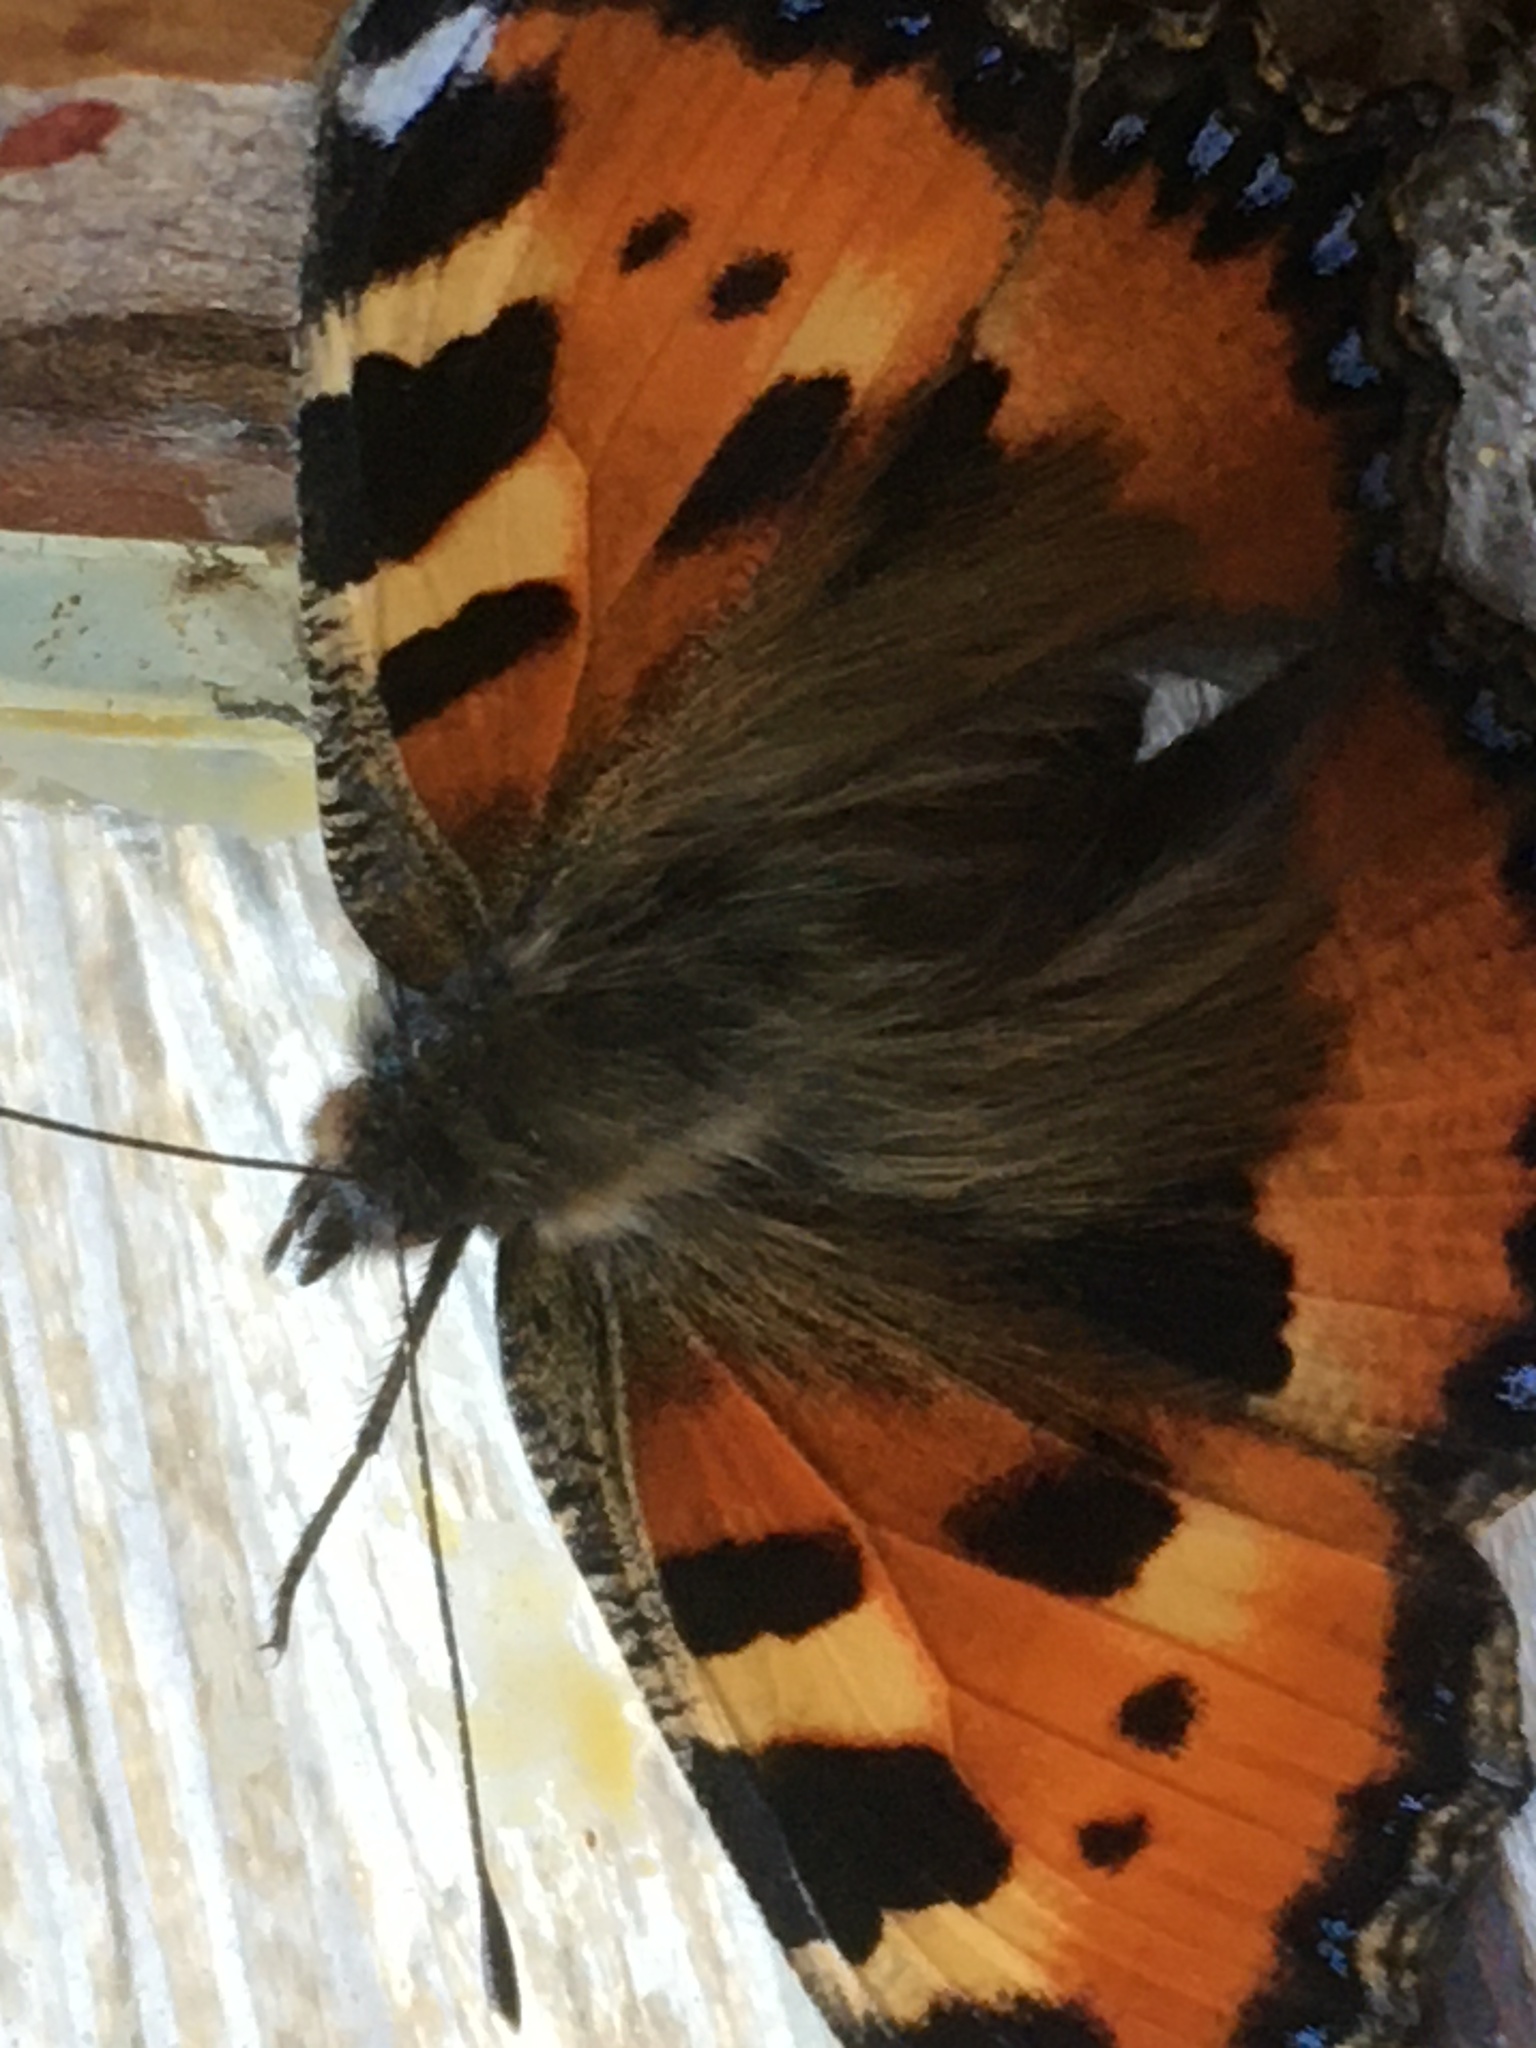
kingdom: Animalia
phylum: Arthropoda
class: Insecta
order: Lepidoptera
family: Nymphalidae
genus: Aglais
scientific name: Aglais urticae
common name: Small tortoiseshell
